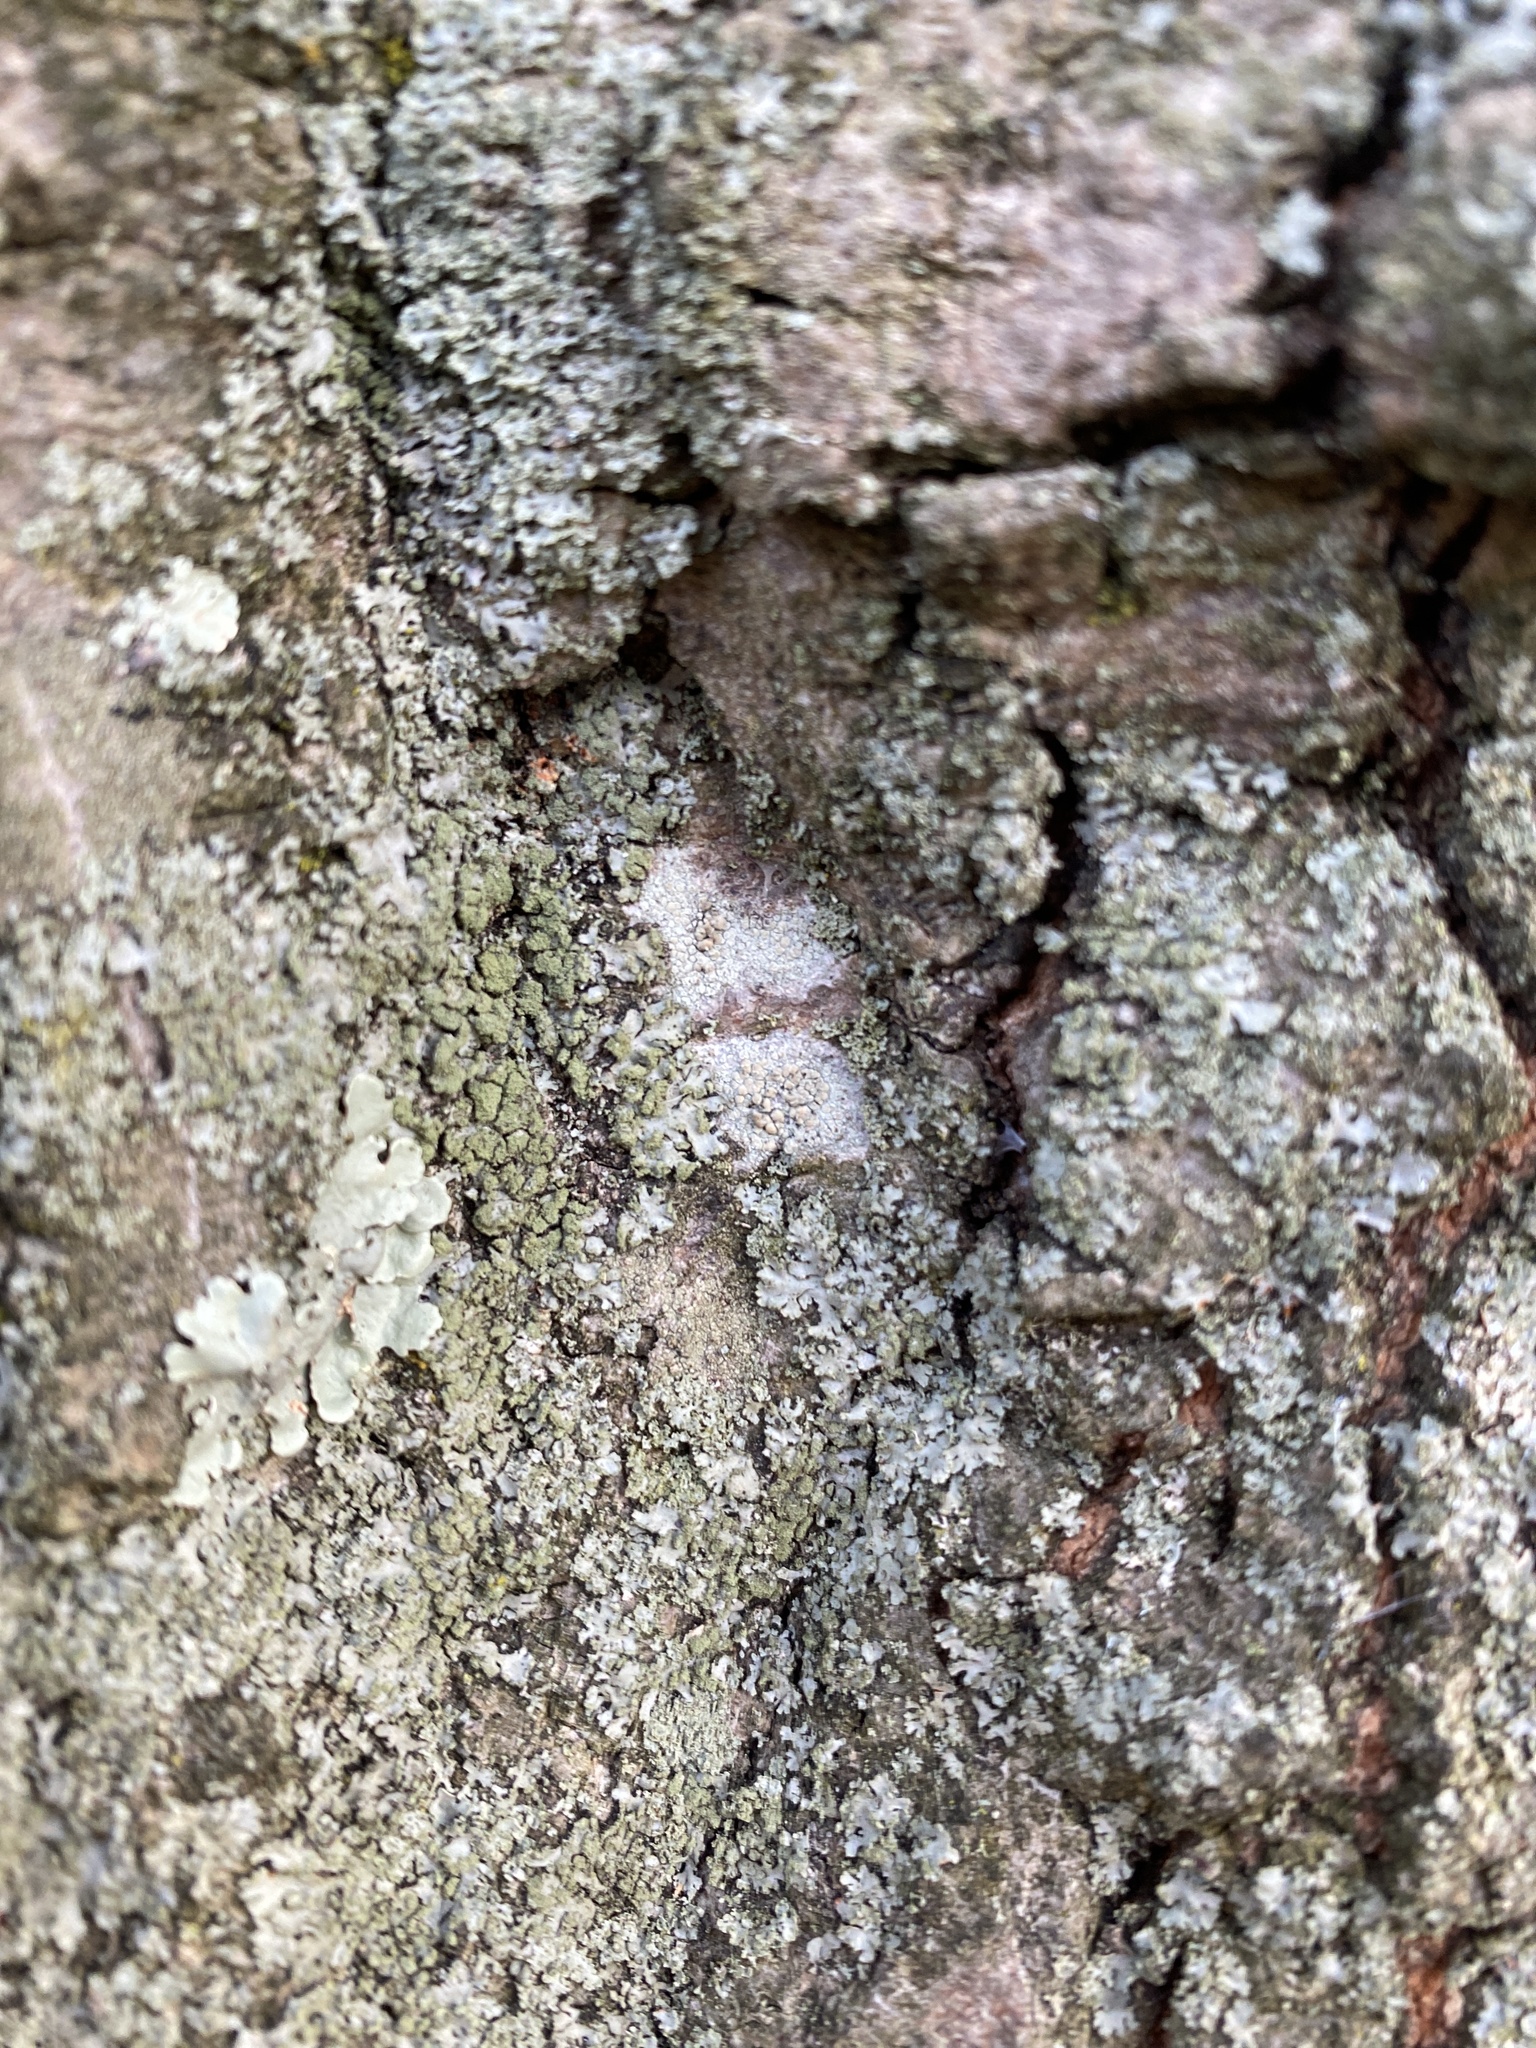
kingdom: Fungi
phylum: Ascomycota
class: Lecanoromycetes
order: Lecanorales
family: Lecanoraceae
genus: Lecanora
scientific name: Lecanora strobilina
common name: Mealy rim-lichen
